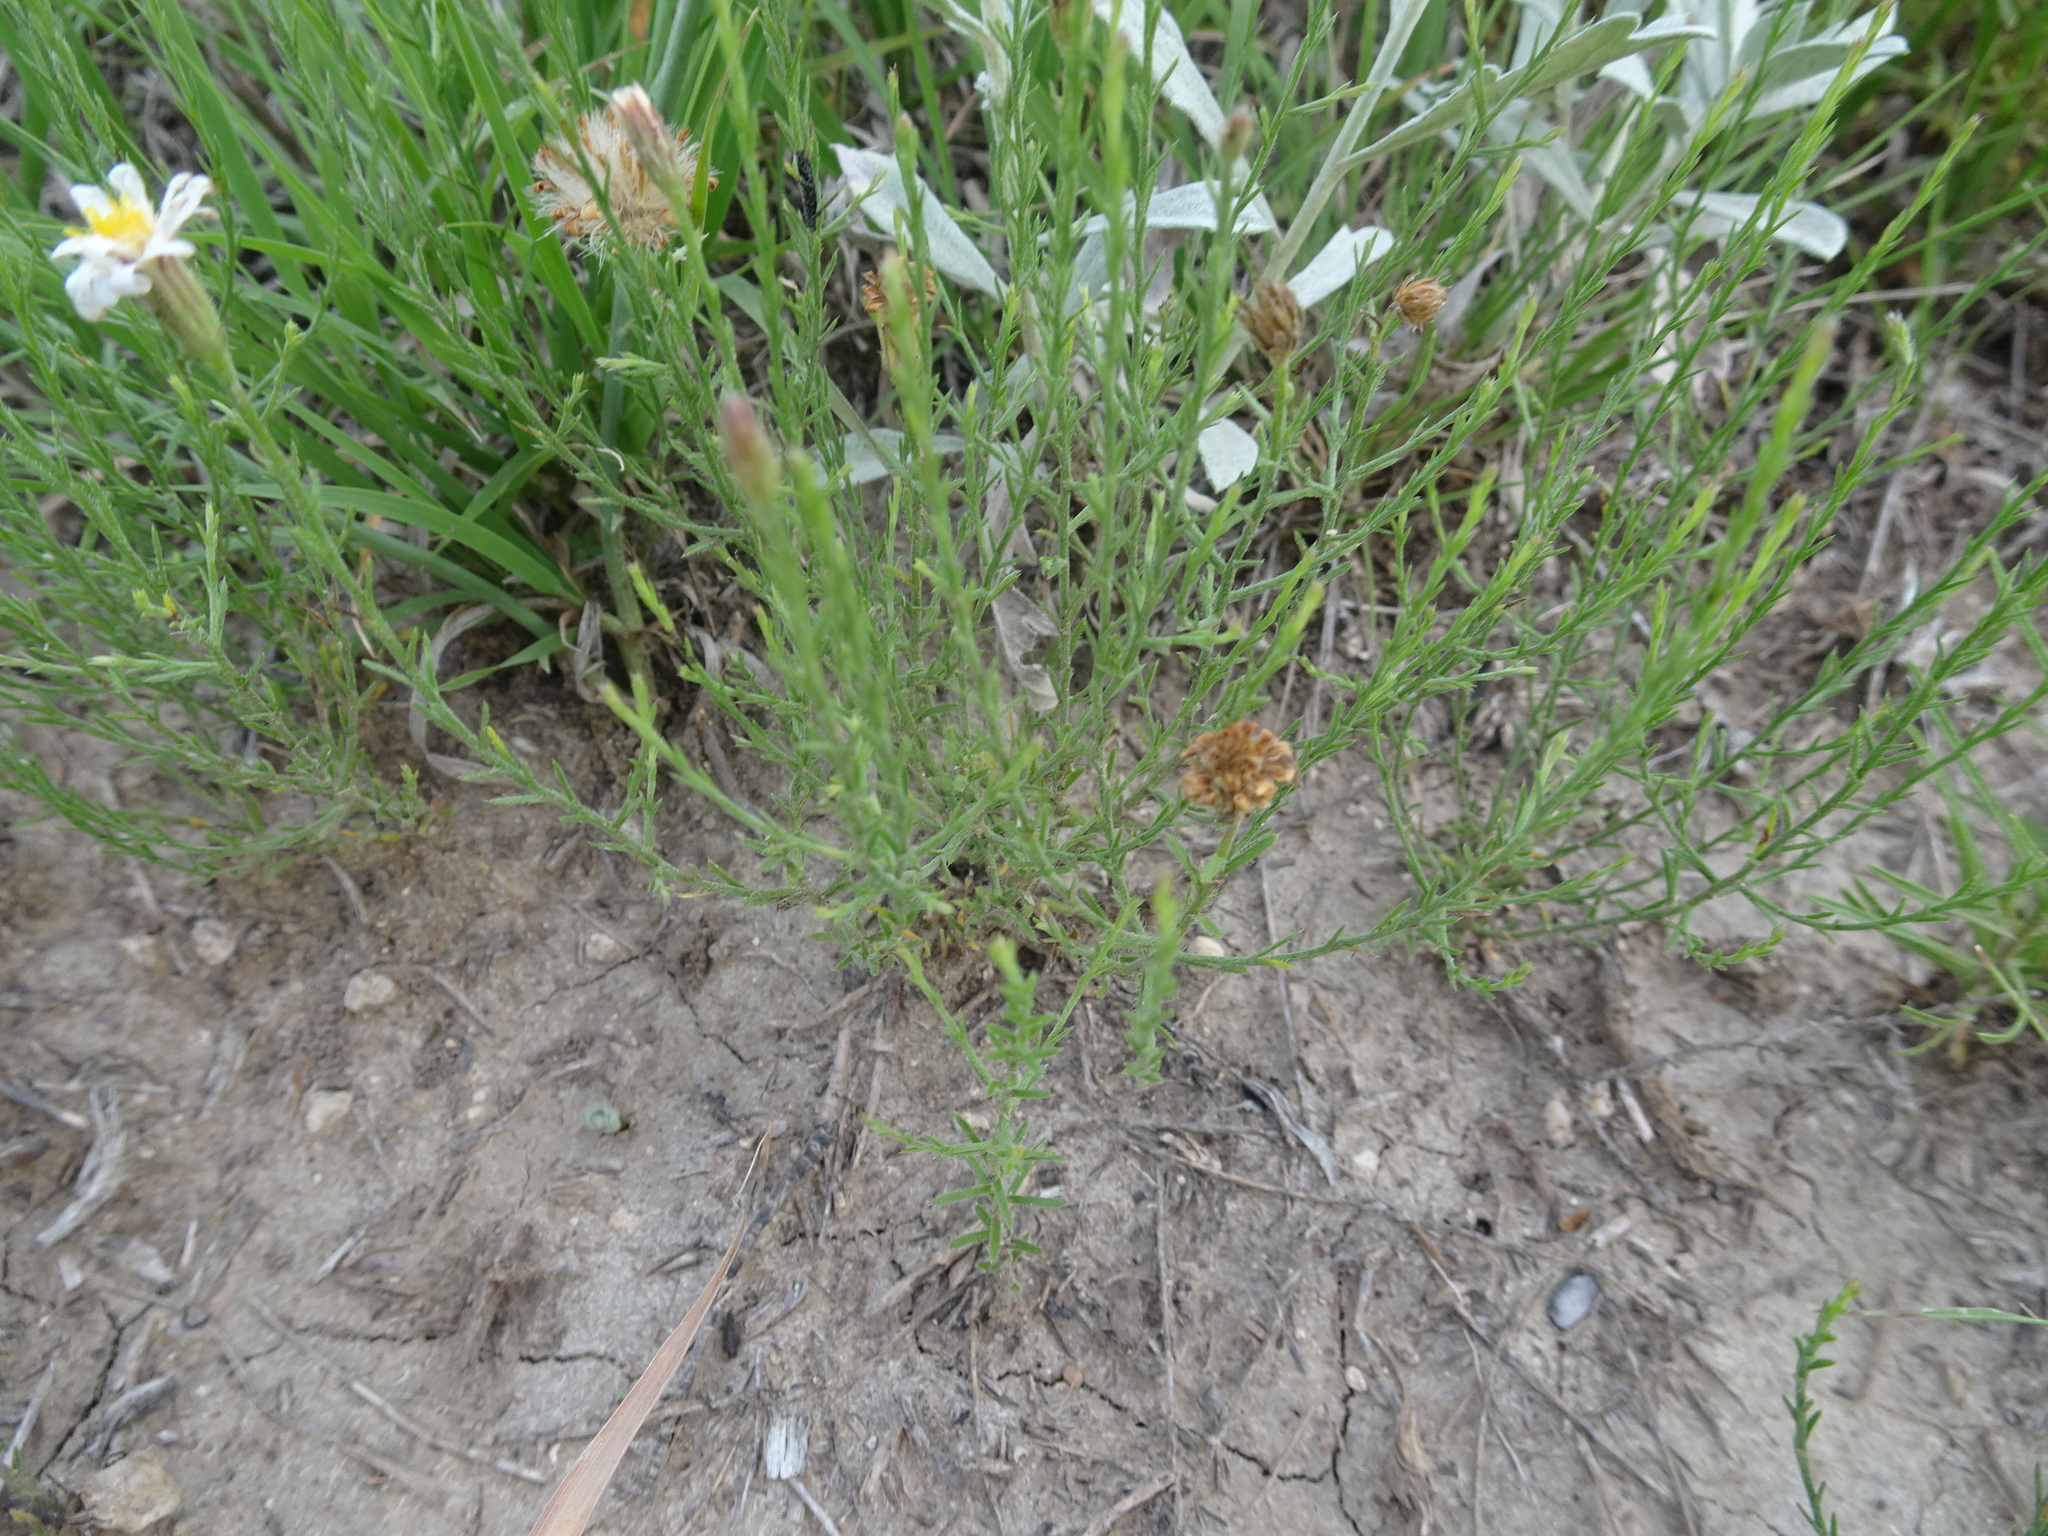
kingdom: Plantae
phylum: Tracheophyta
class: Magnoliopsida
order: Asterales
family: Asteraceae
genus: Chaetopappa
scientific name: Chaetopappa ericoides
